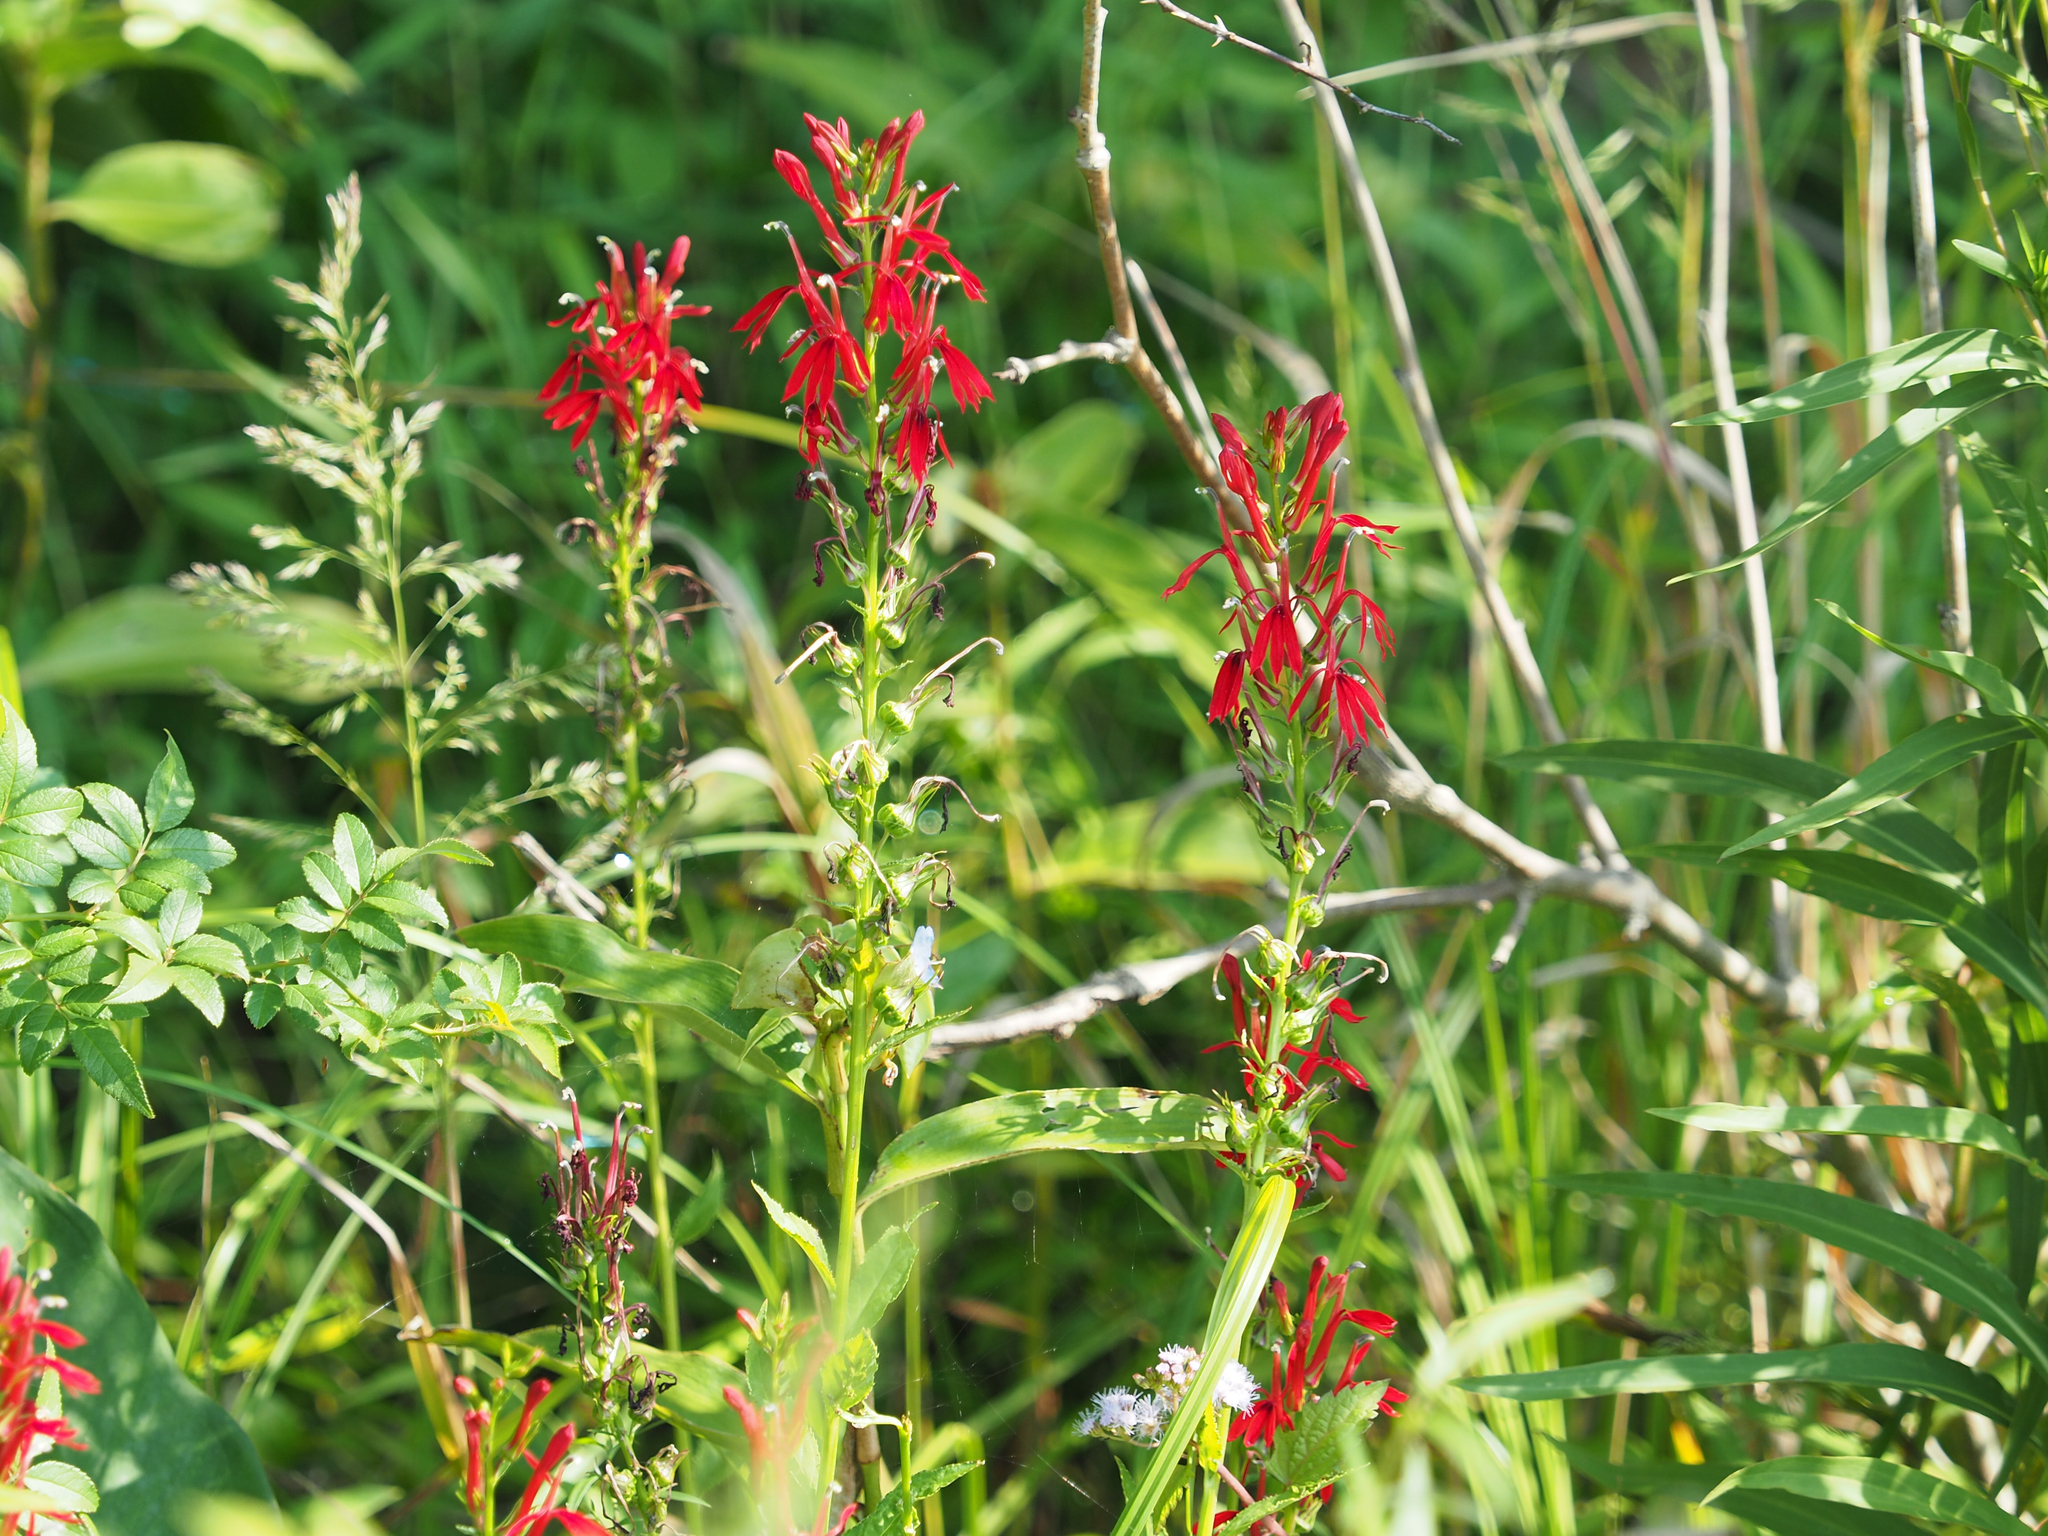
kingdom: Plantae
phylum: Tracheophyta
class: Magnoliopsida
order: Asterales
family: Campanulaceae
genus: Lobelia
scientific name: Lobelia cardinalis
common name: Cardinal flower
